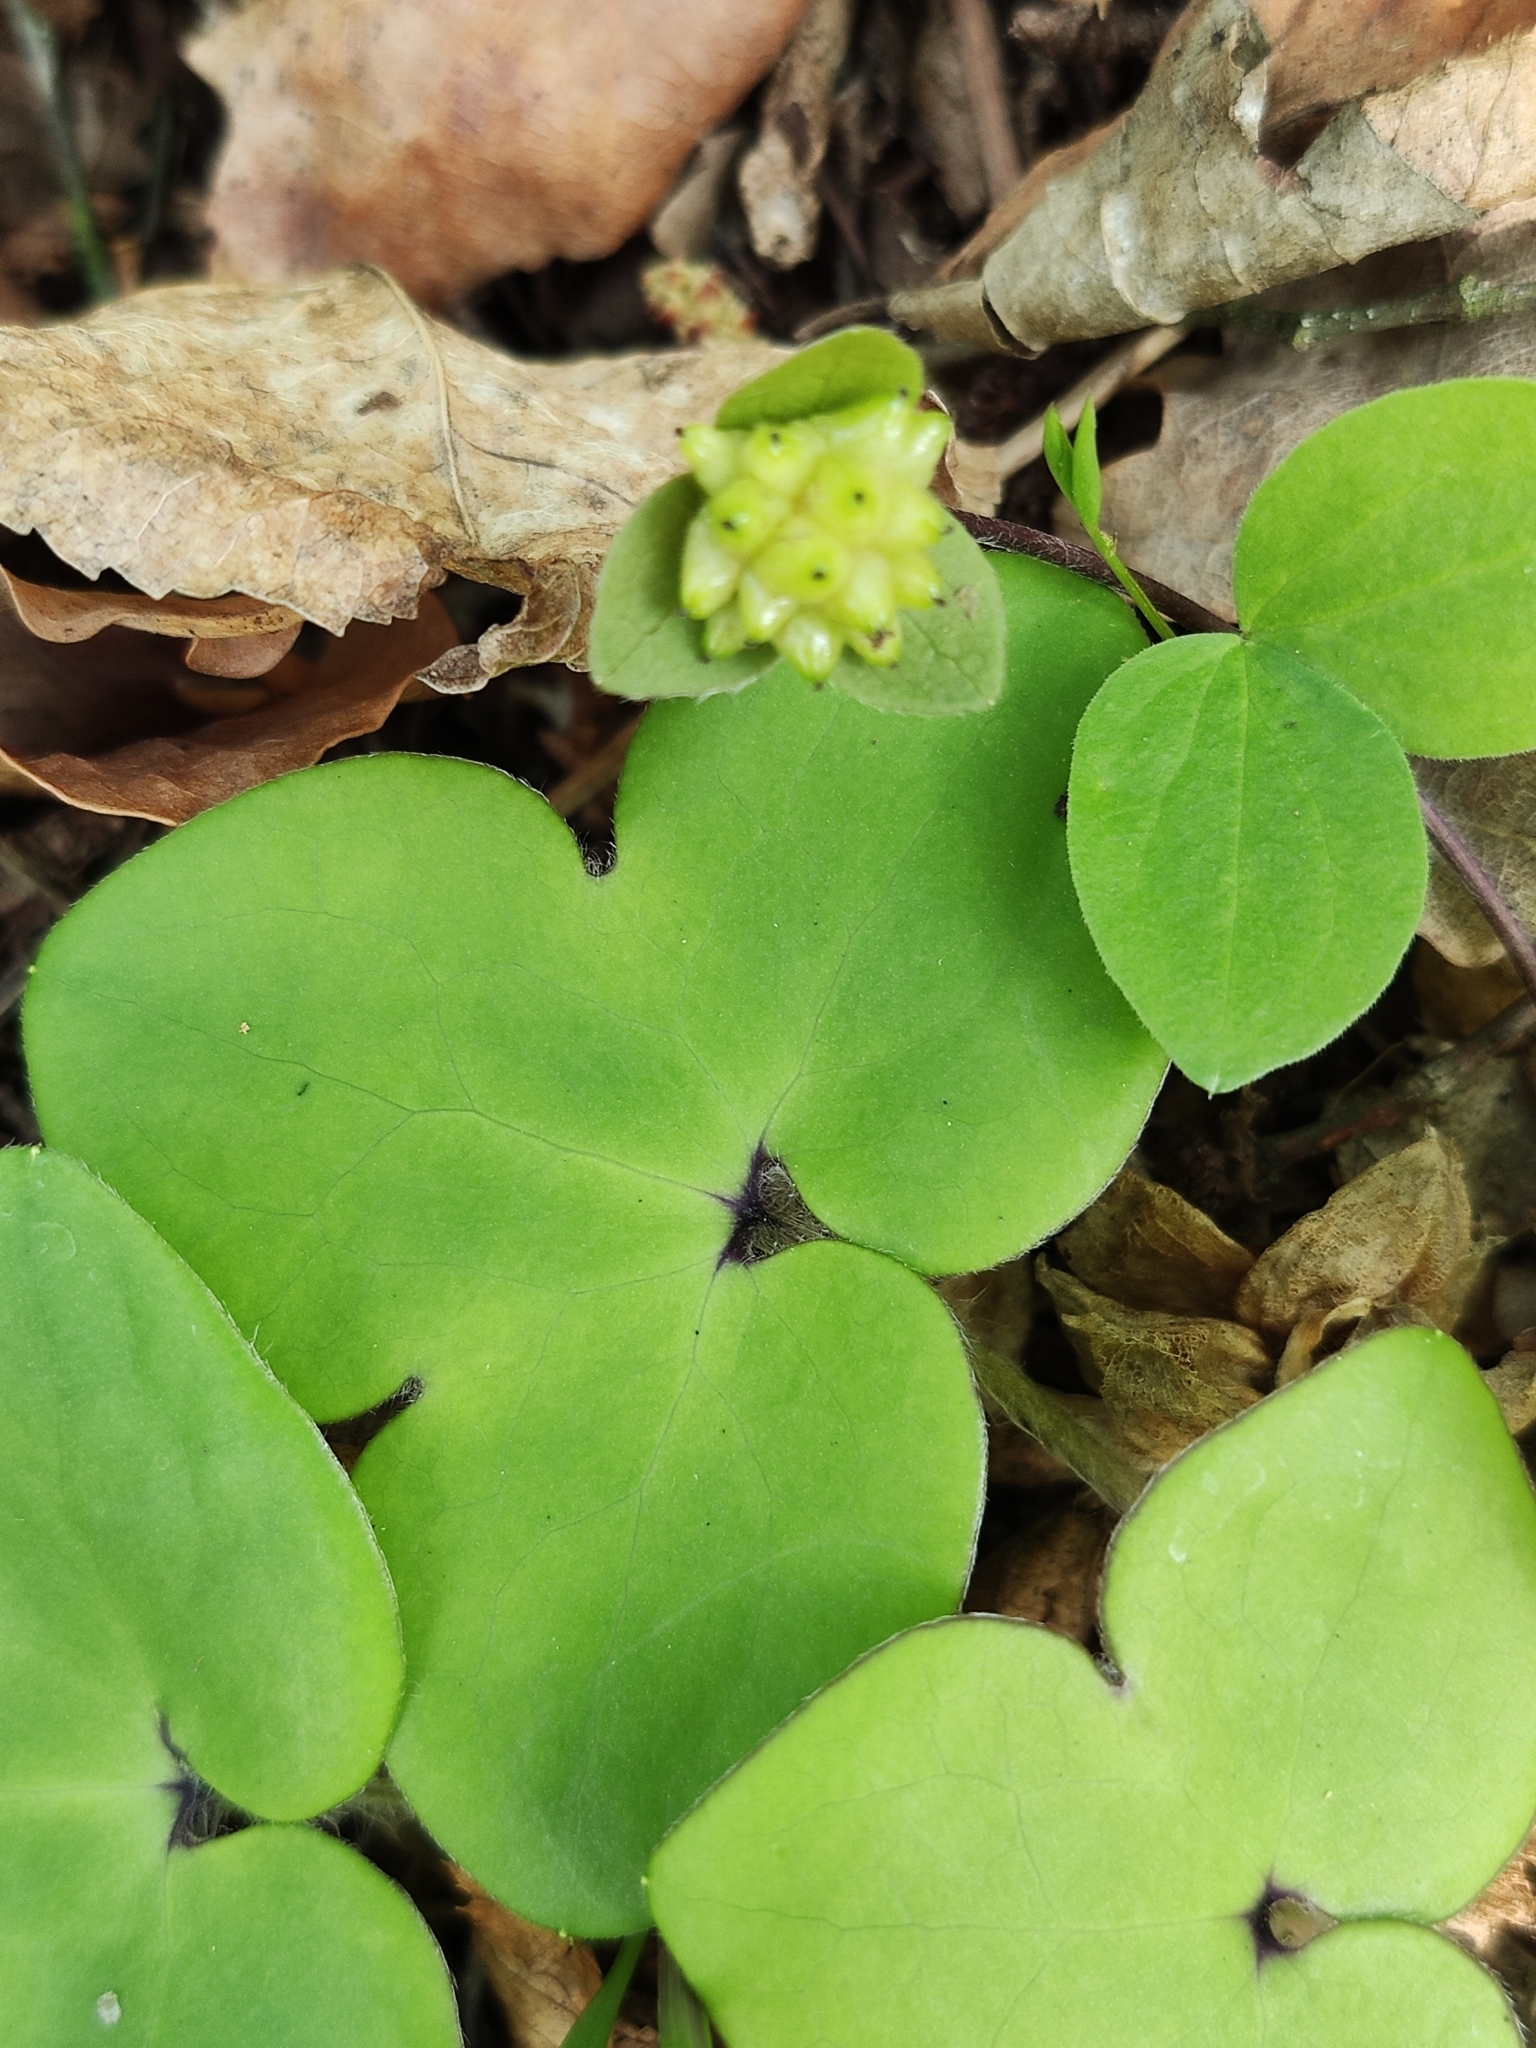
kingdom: Plantae
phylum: Tracheophyta
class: Magnoliopsida
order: Ranunculales
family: Ranunculaceae
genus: Hepatica
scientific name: Hepatica nobilis
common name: Liverleaf
